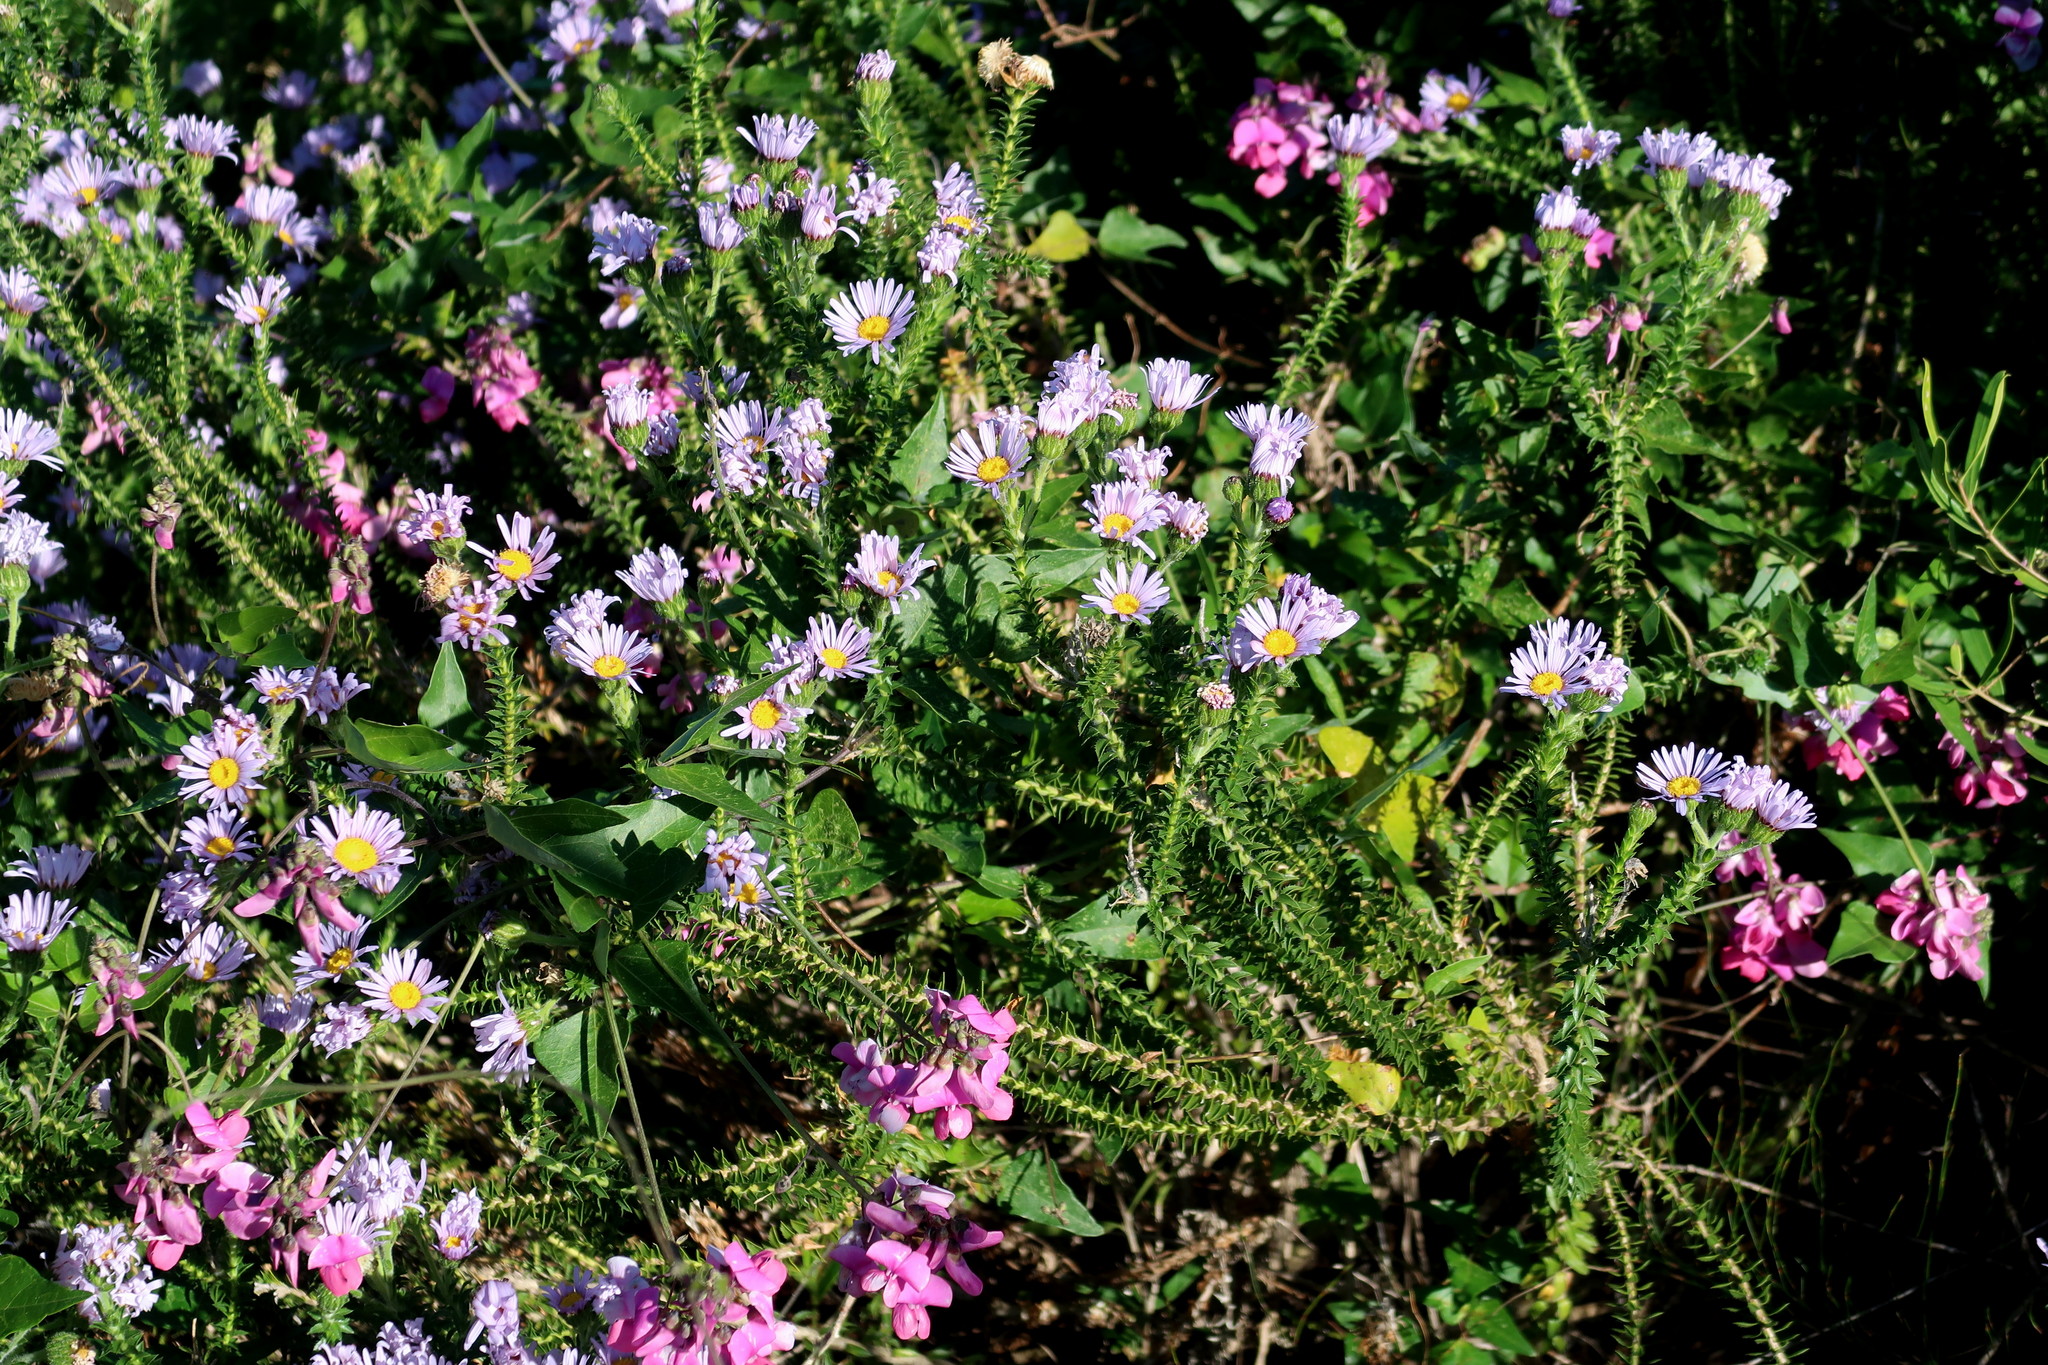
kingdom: Plantae
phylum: Tracheophyta
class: Magnoliopsida
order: Asterales
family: Asteraceae
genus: Felicia
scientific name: Felicia echinata
